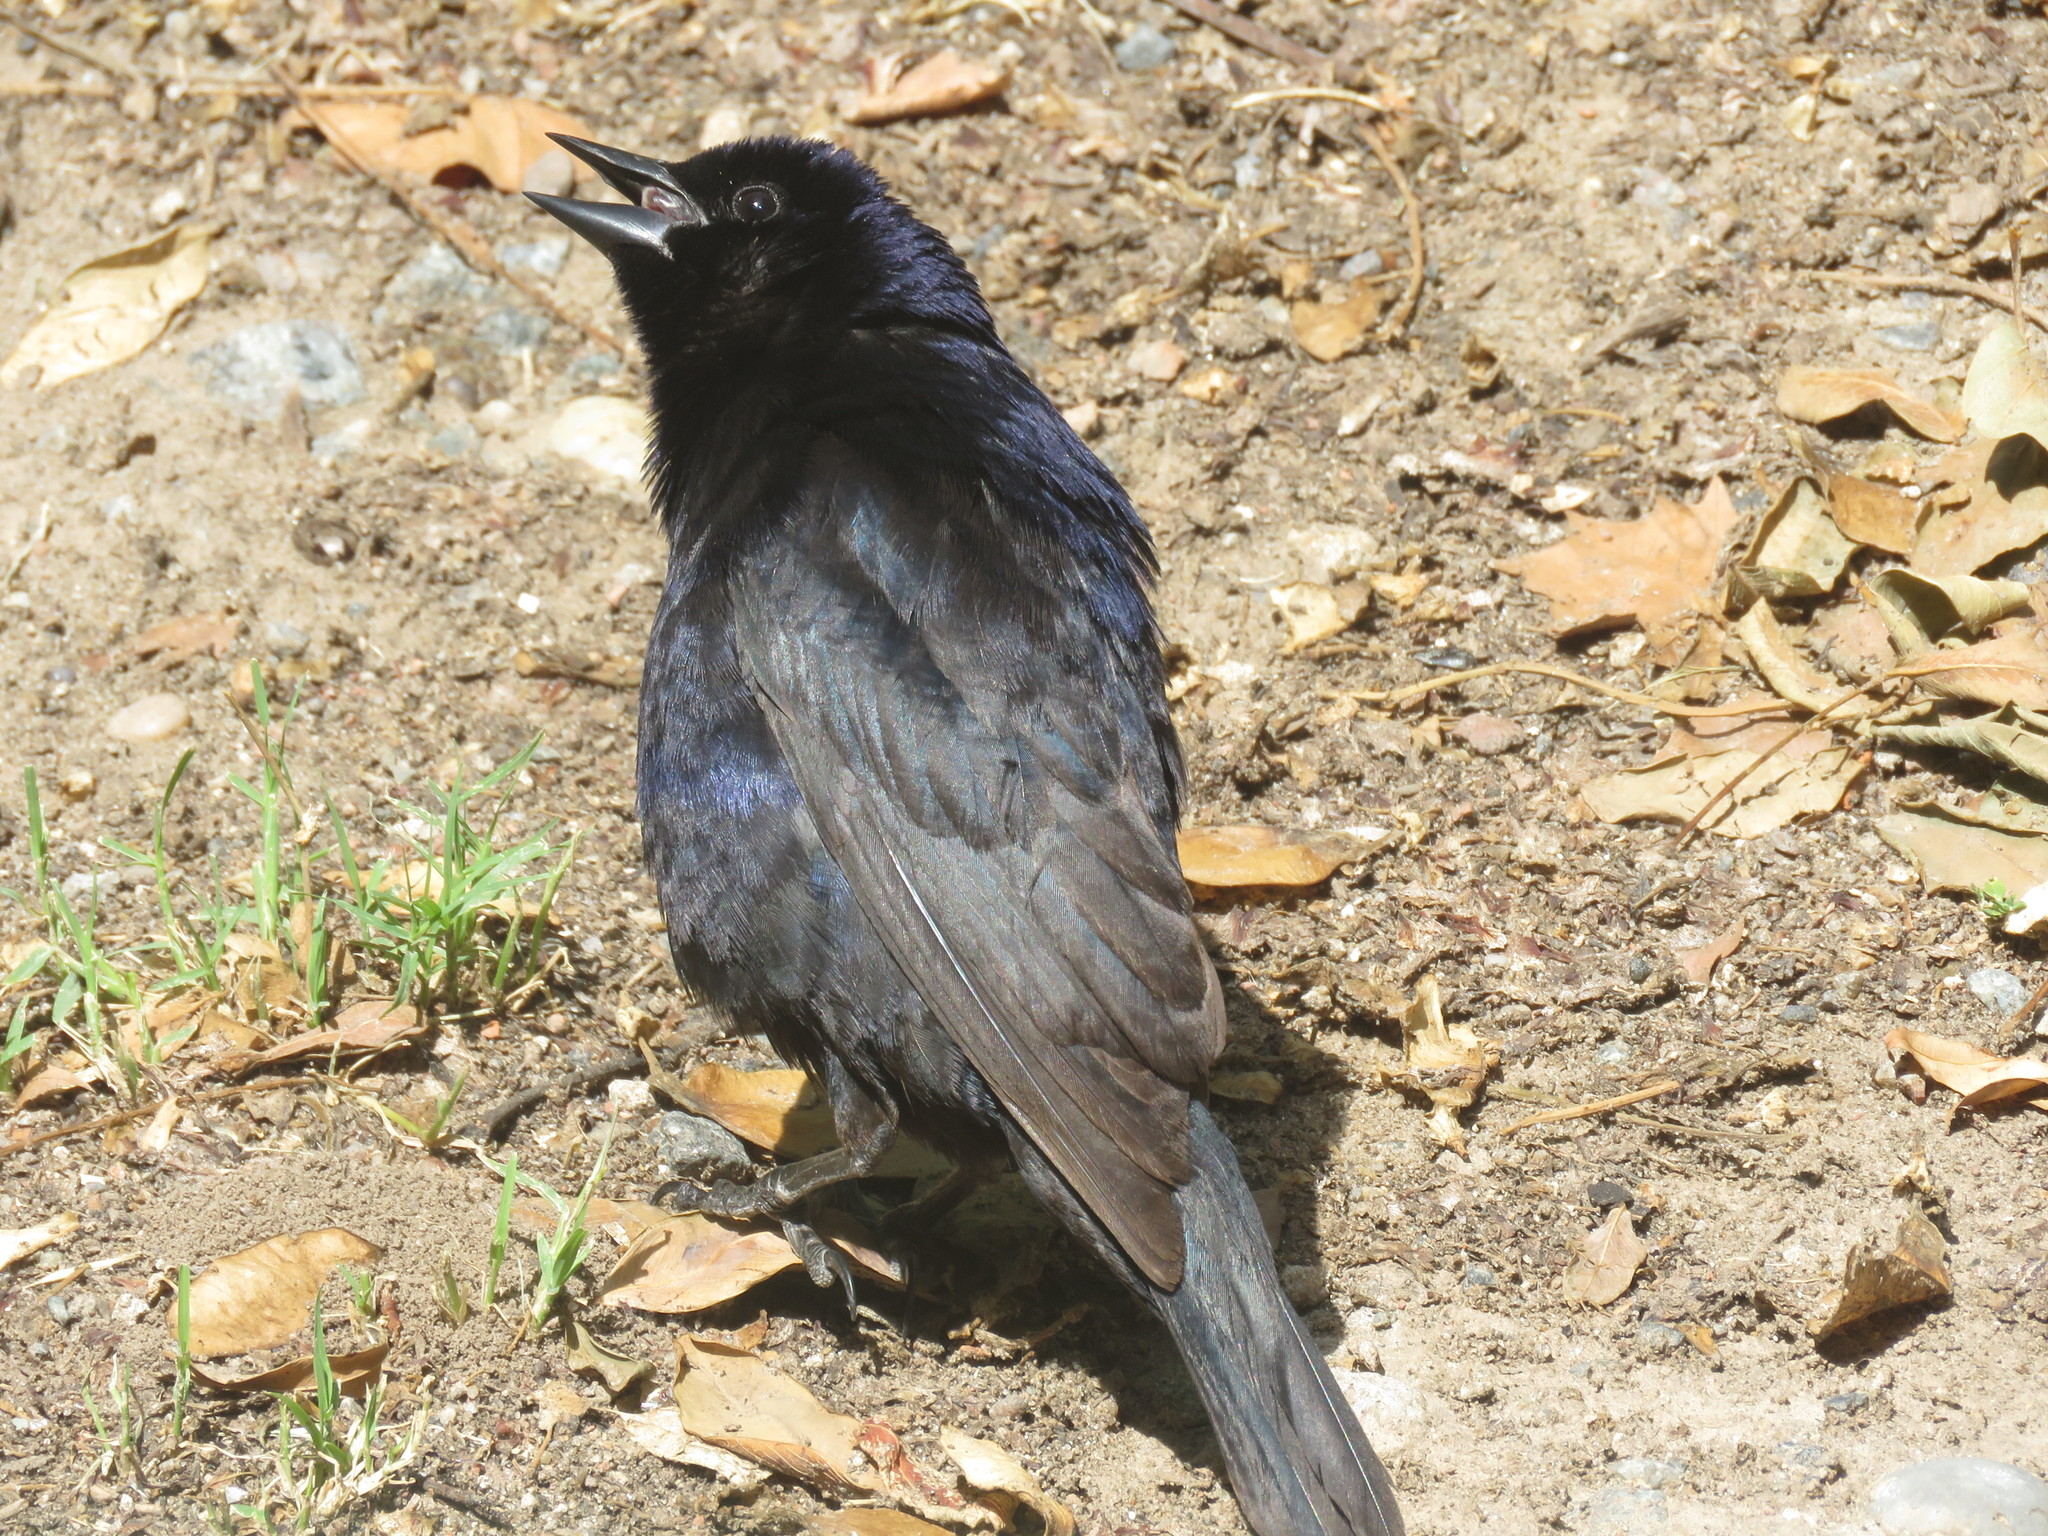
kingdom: Animalia
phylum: Chordata
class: Aves
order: Passeriformes
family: Icteridae
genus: Molothrus
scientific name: Molothrus bonariensis
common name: Shiny cowbird
